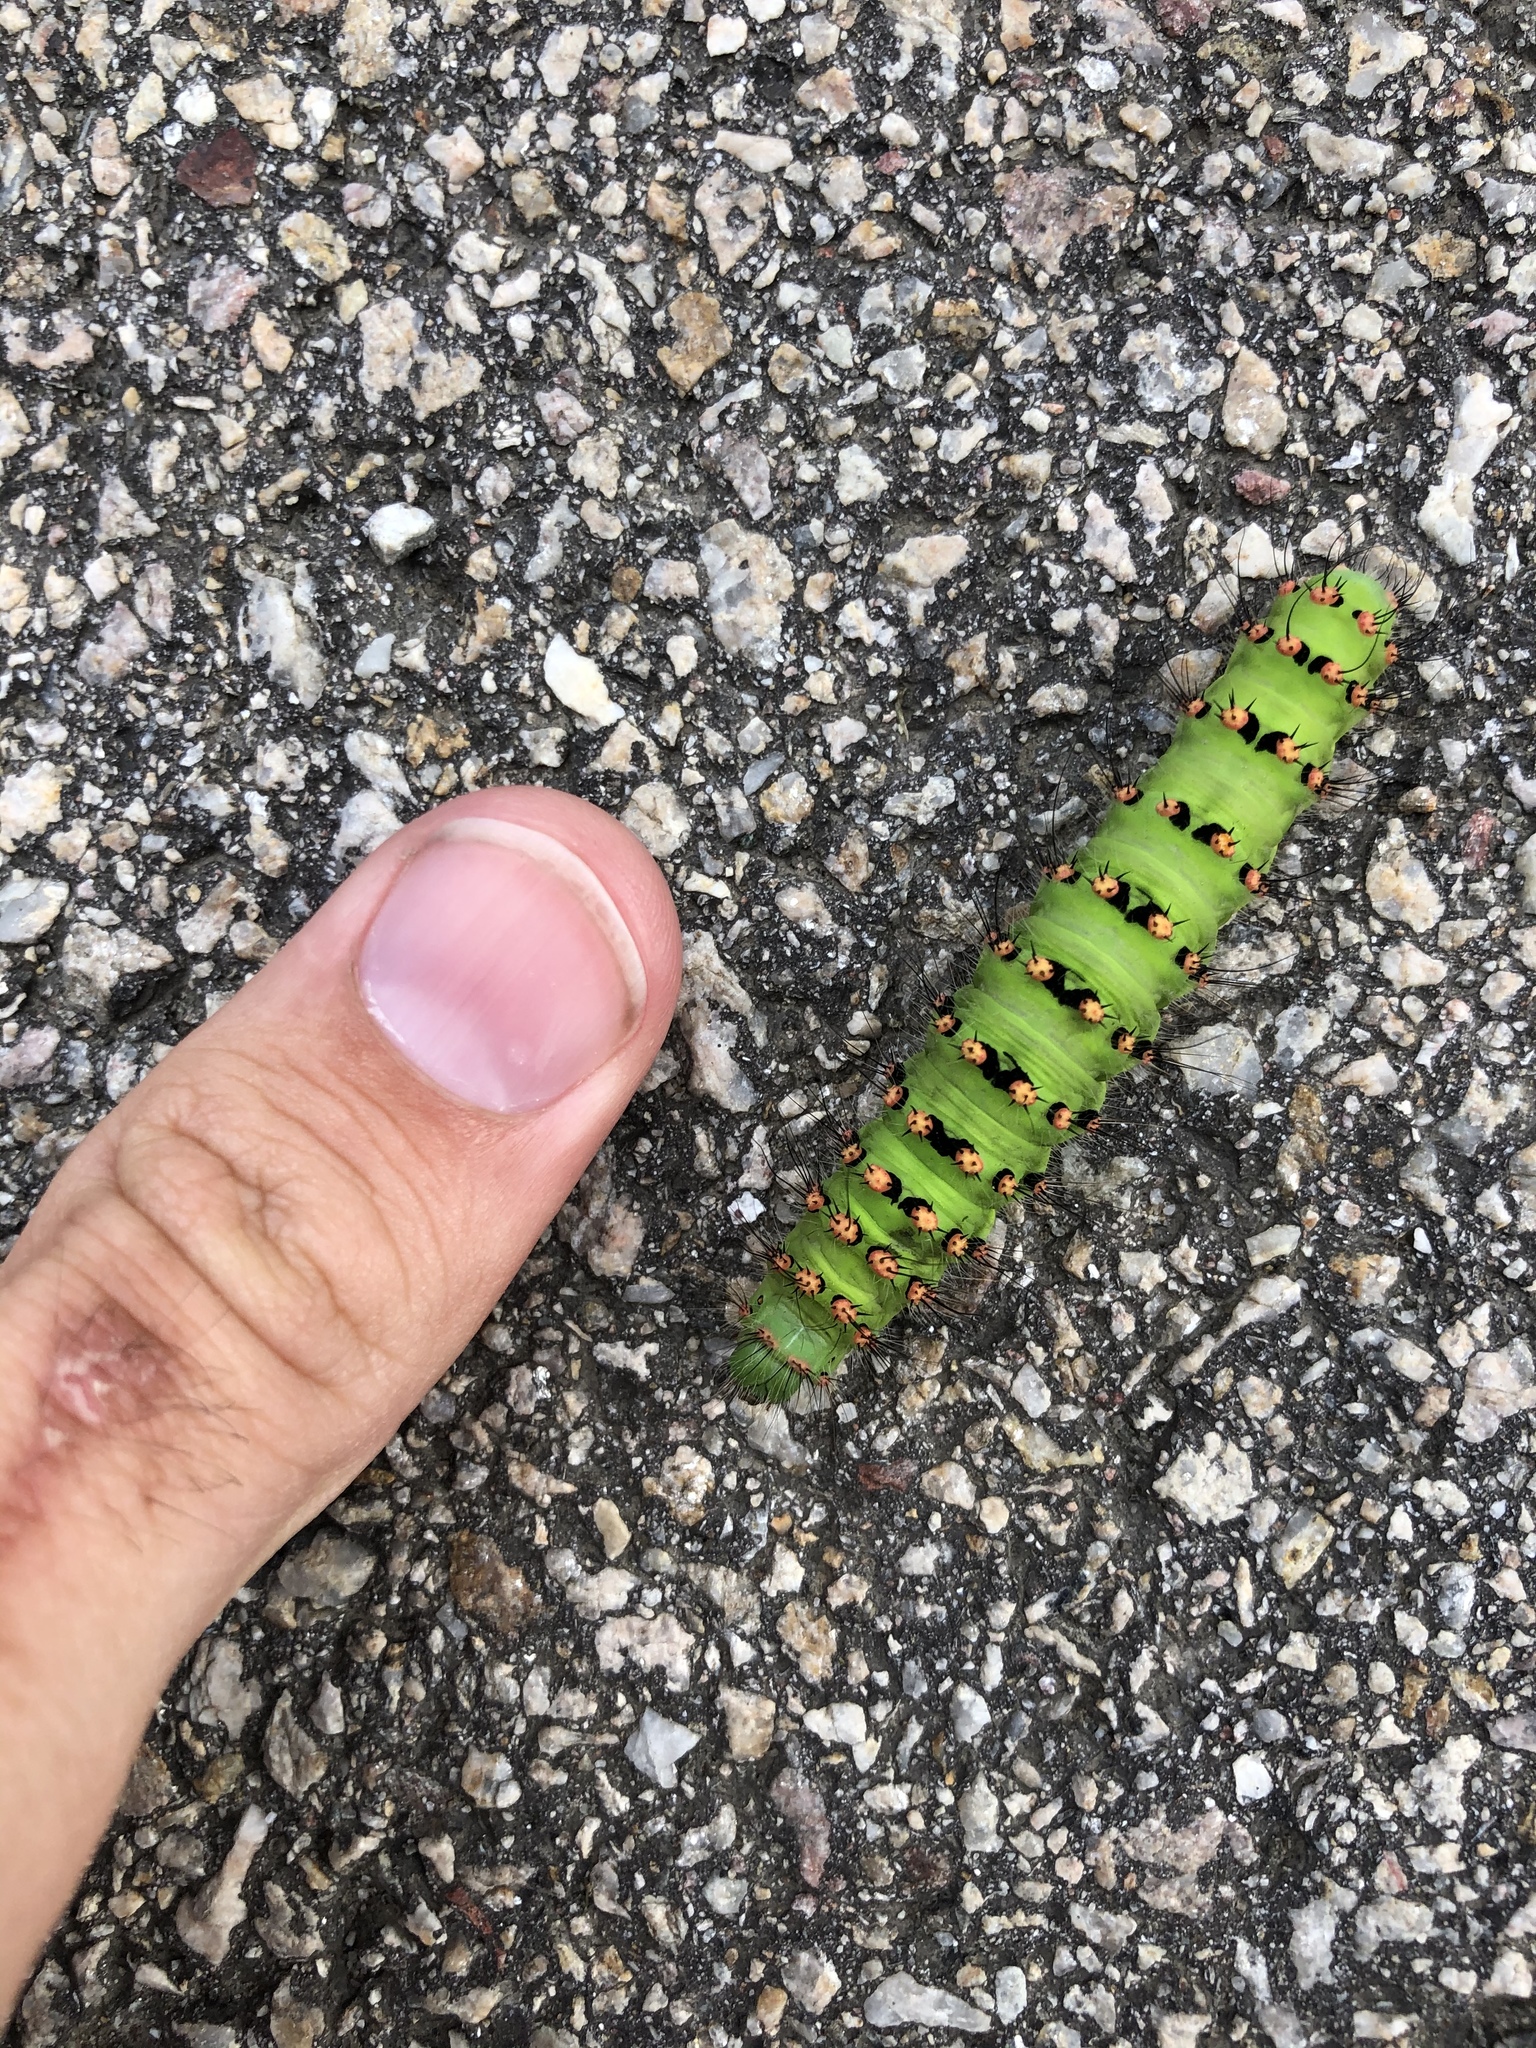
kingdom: Animalia
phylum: Arthropoda
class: Insecta
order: Lepidoptera
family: Saturniidae
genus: Saturnia
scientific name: Saturnia pavoniella
